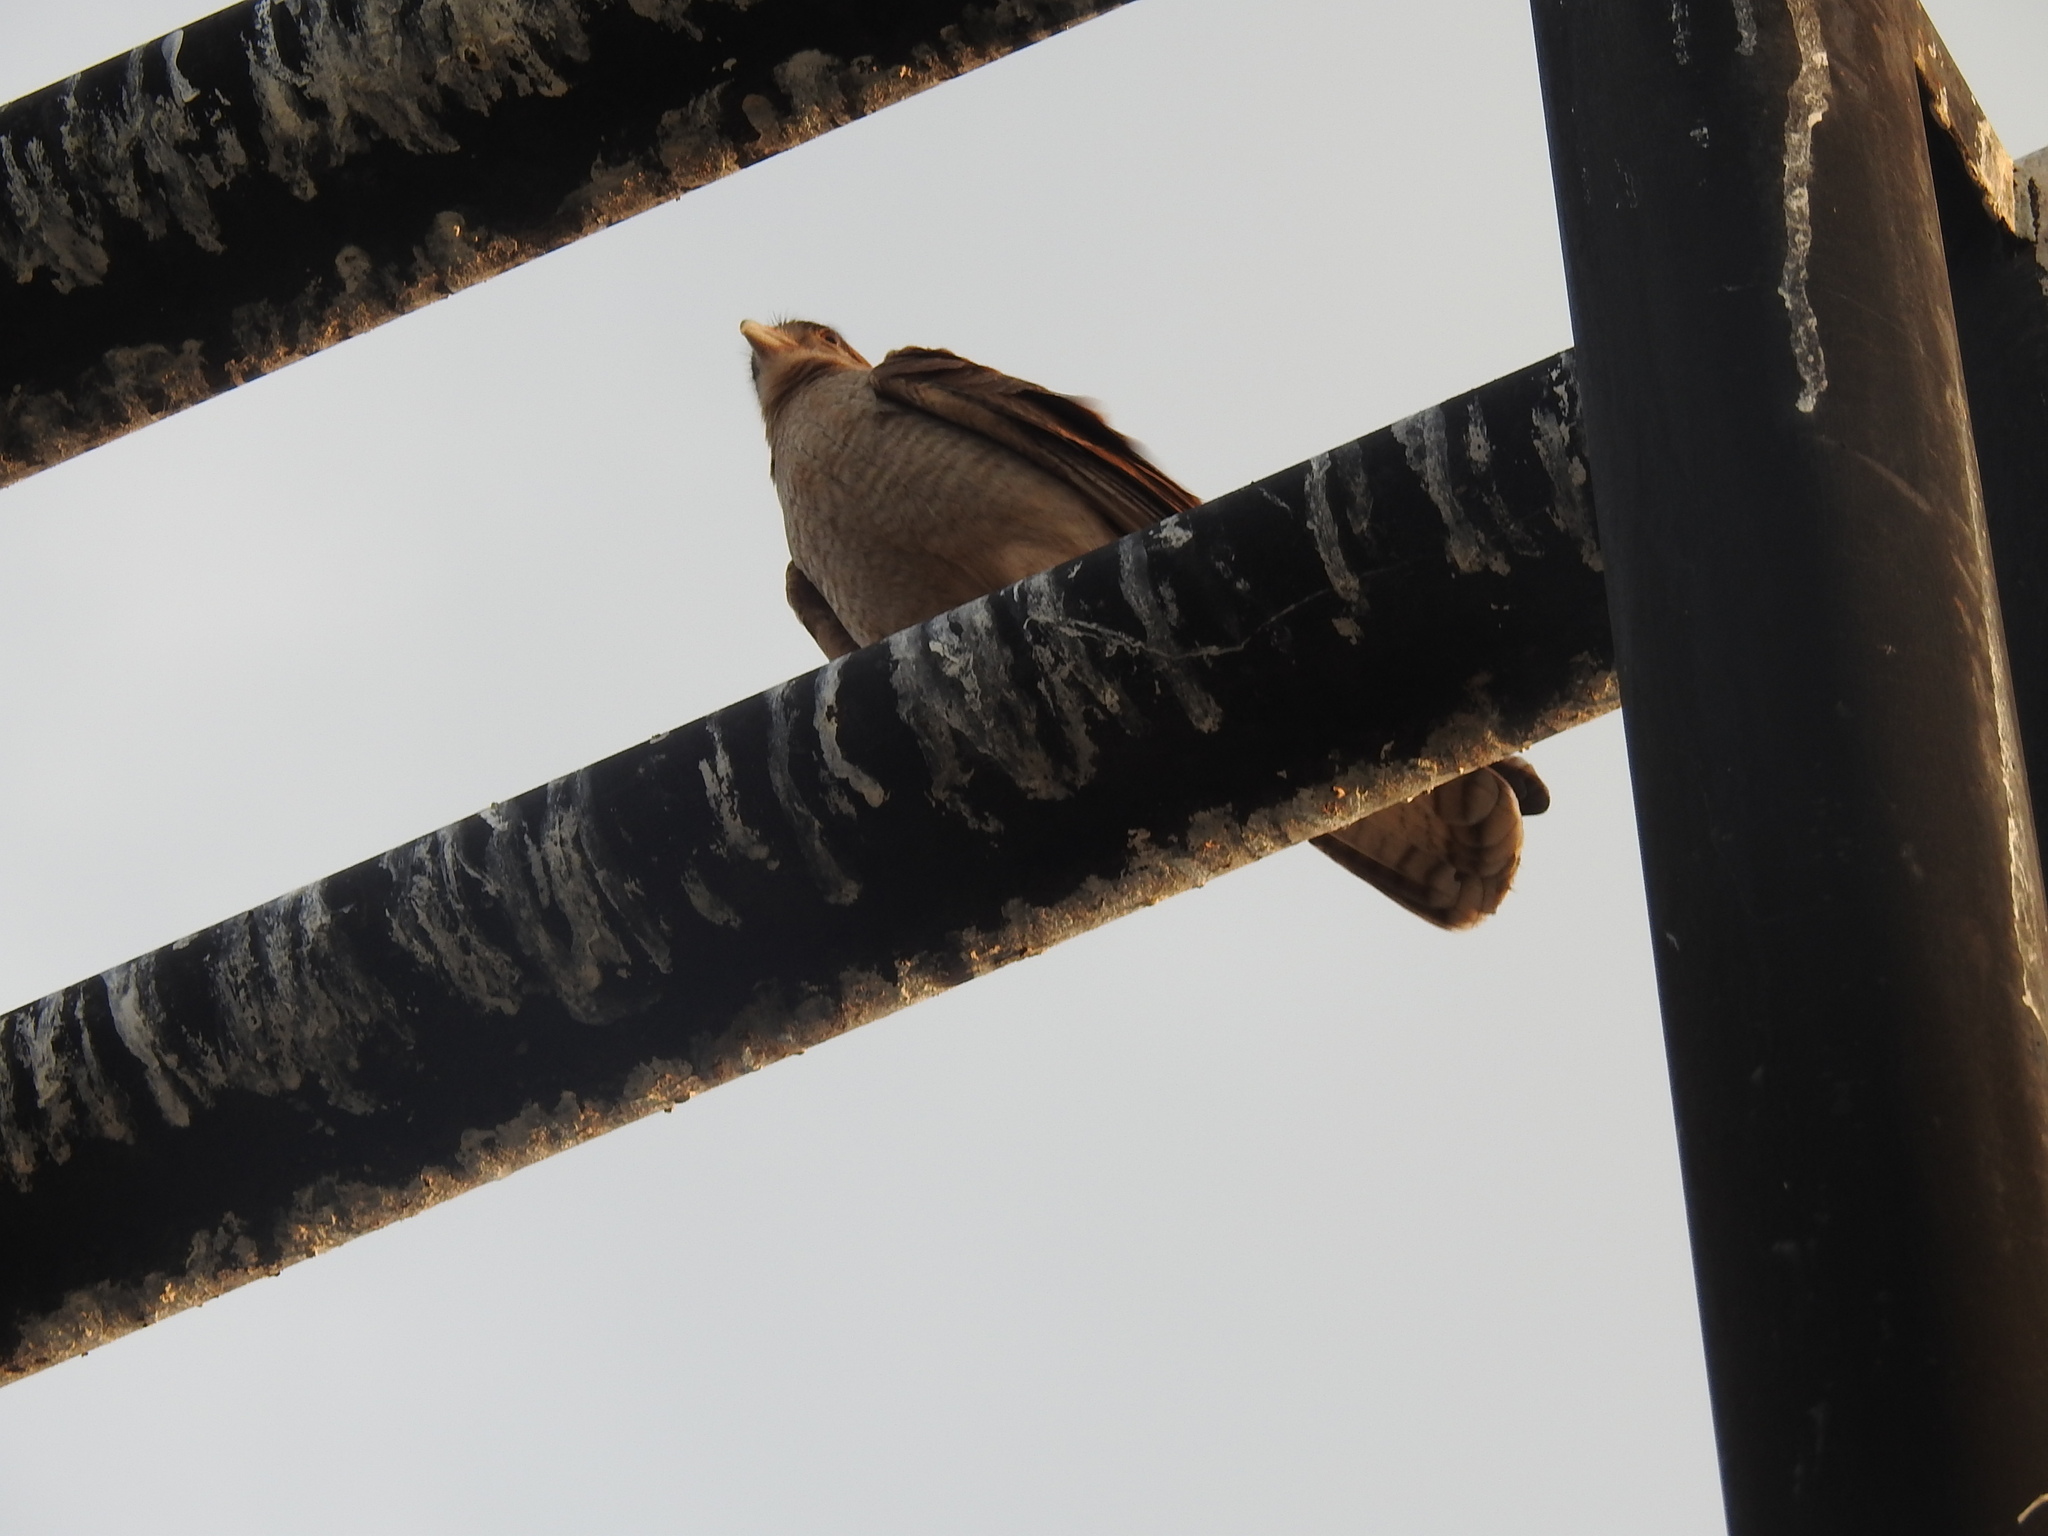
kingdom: Animalia
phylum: Chordata
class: Aves
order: Falconiformes
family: Falconidae
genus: Daptrius
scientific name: Daptrius
